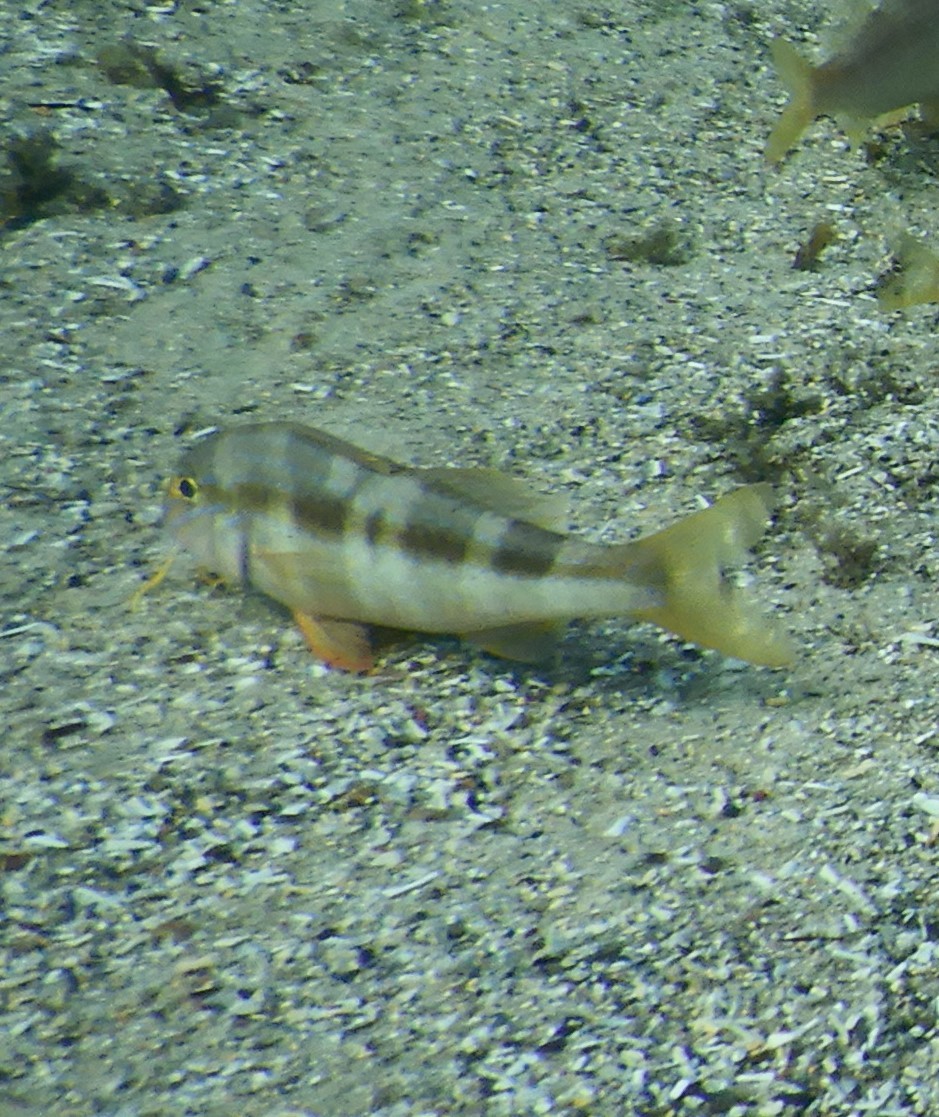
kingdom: Animalia
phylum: Chordata
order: Perciformes
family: Mullidae
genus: Upeneichthys
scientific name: Upeneichthys lineatus
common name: Red mullet
